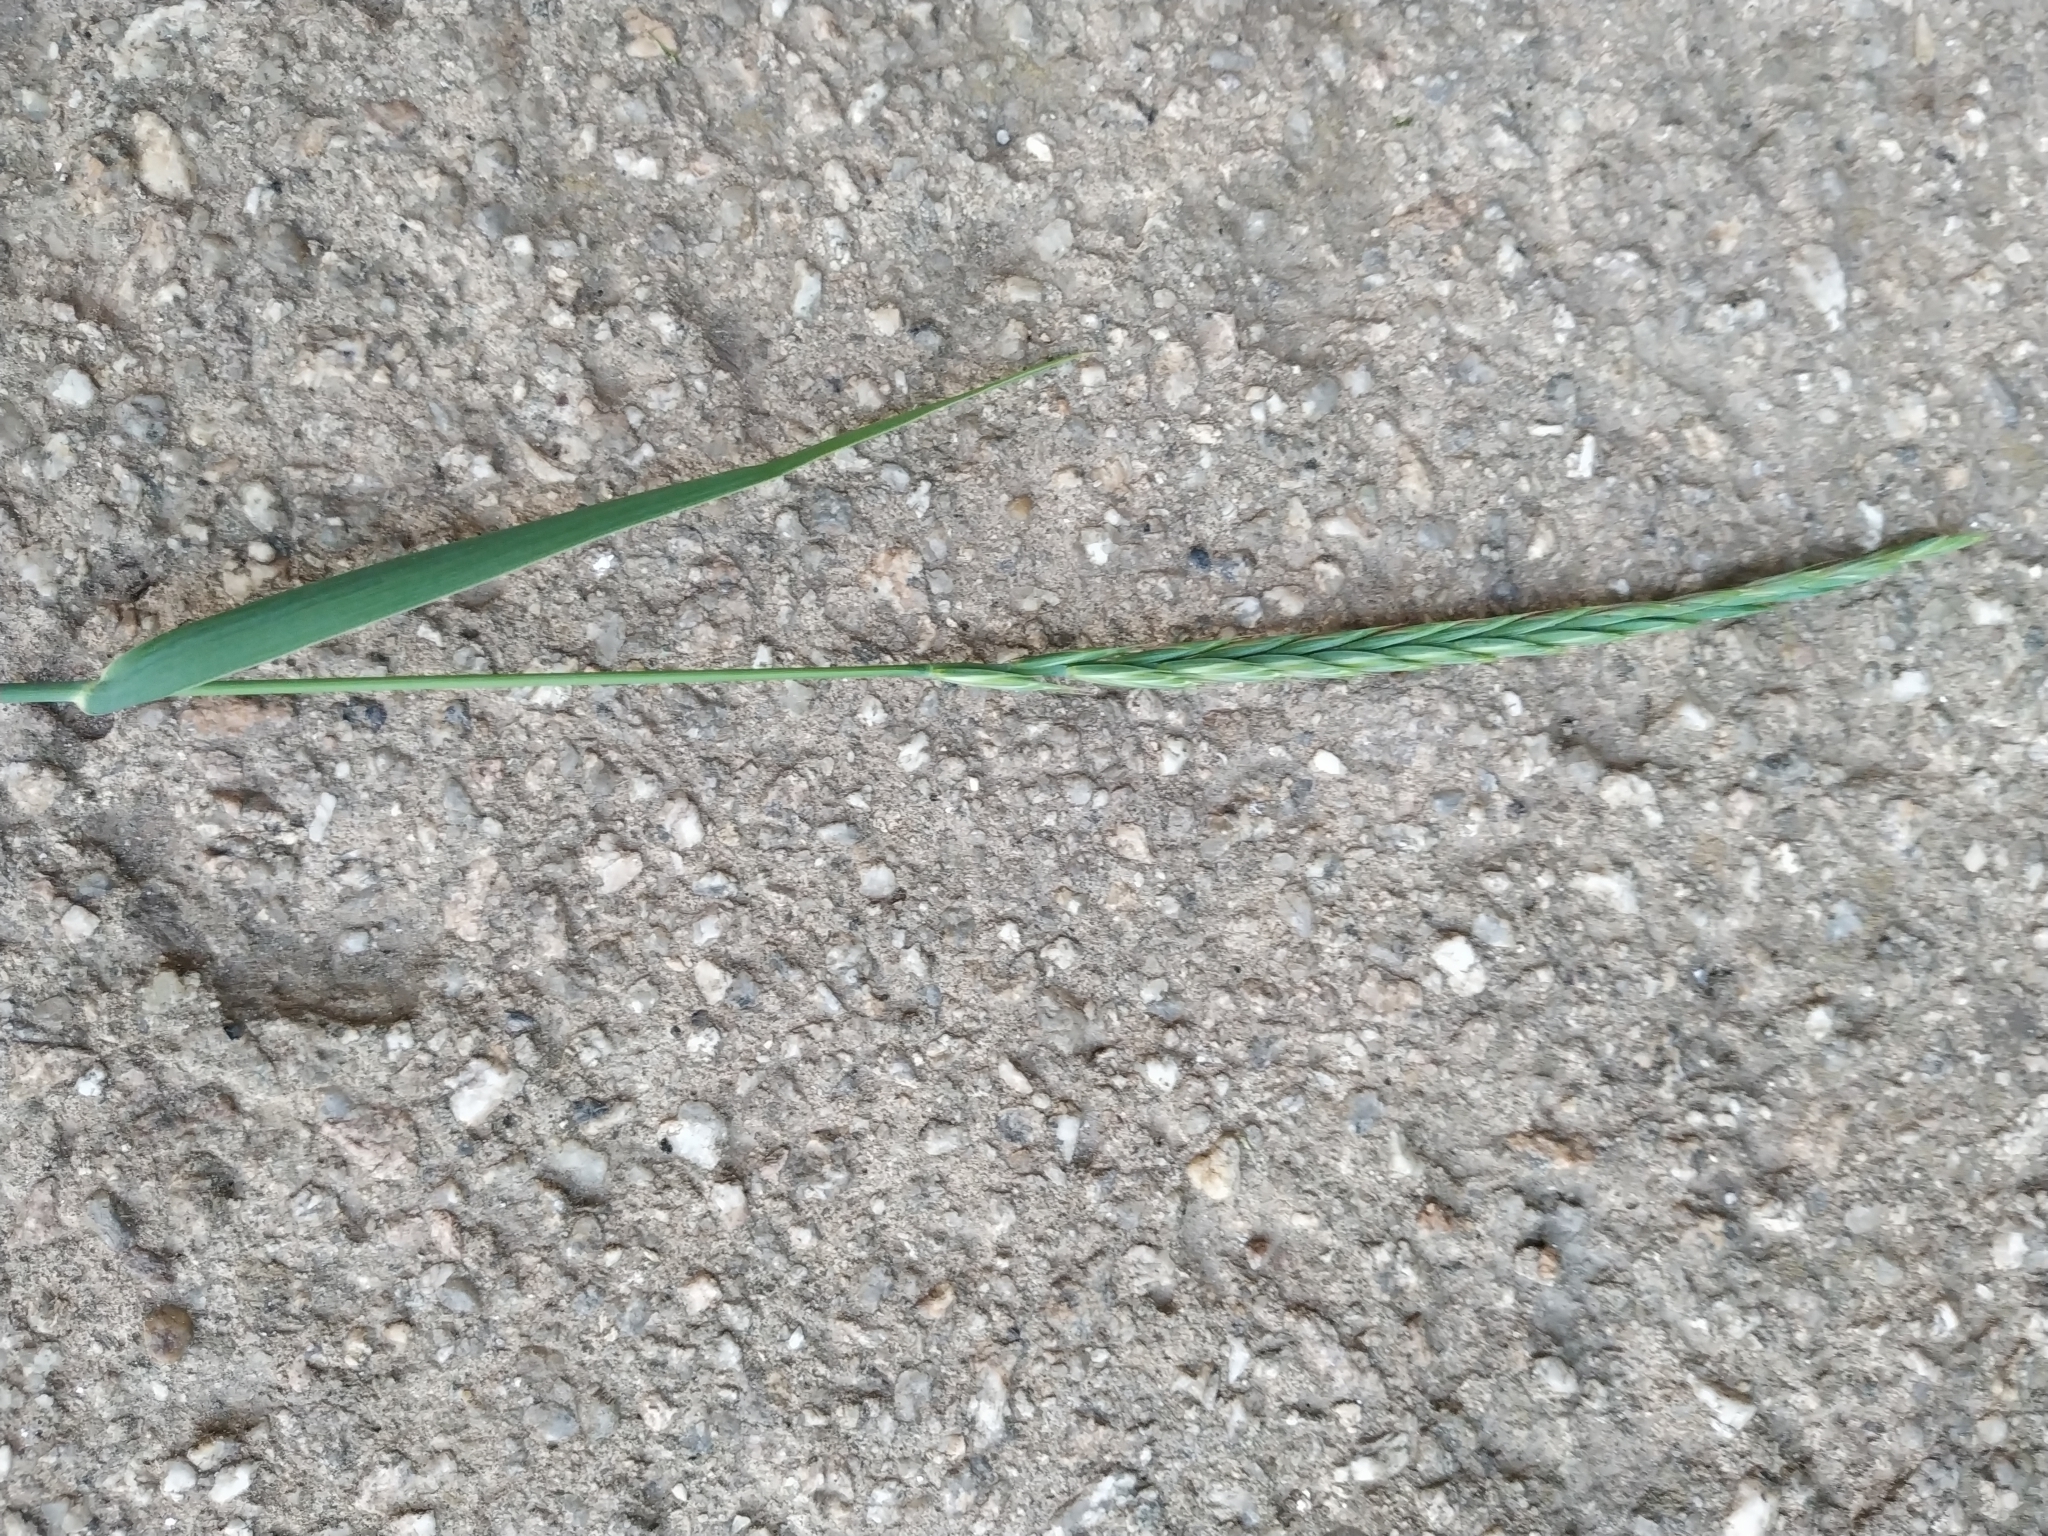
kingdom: Plantae
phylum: Tracheophyta
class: Liliopsida
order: Poales
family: Poaceae
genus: Elymus
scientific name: Elymus repens
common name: Quackgrass
